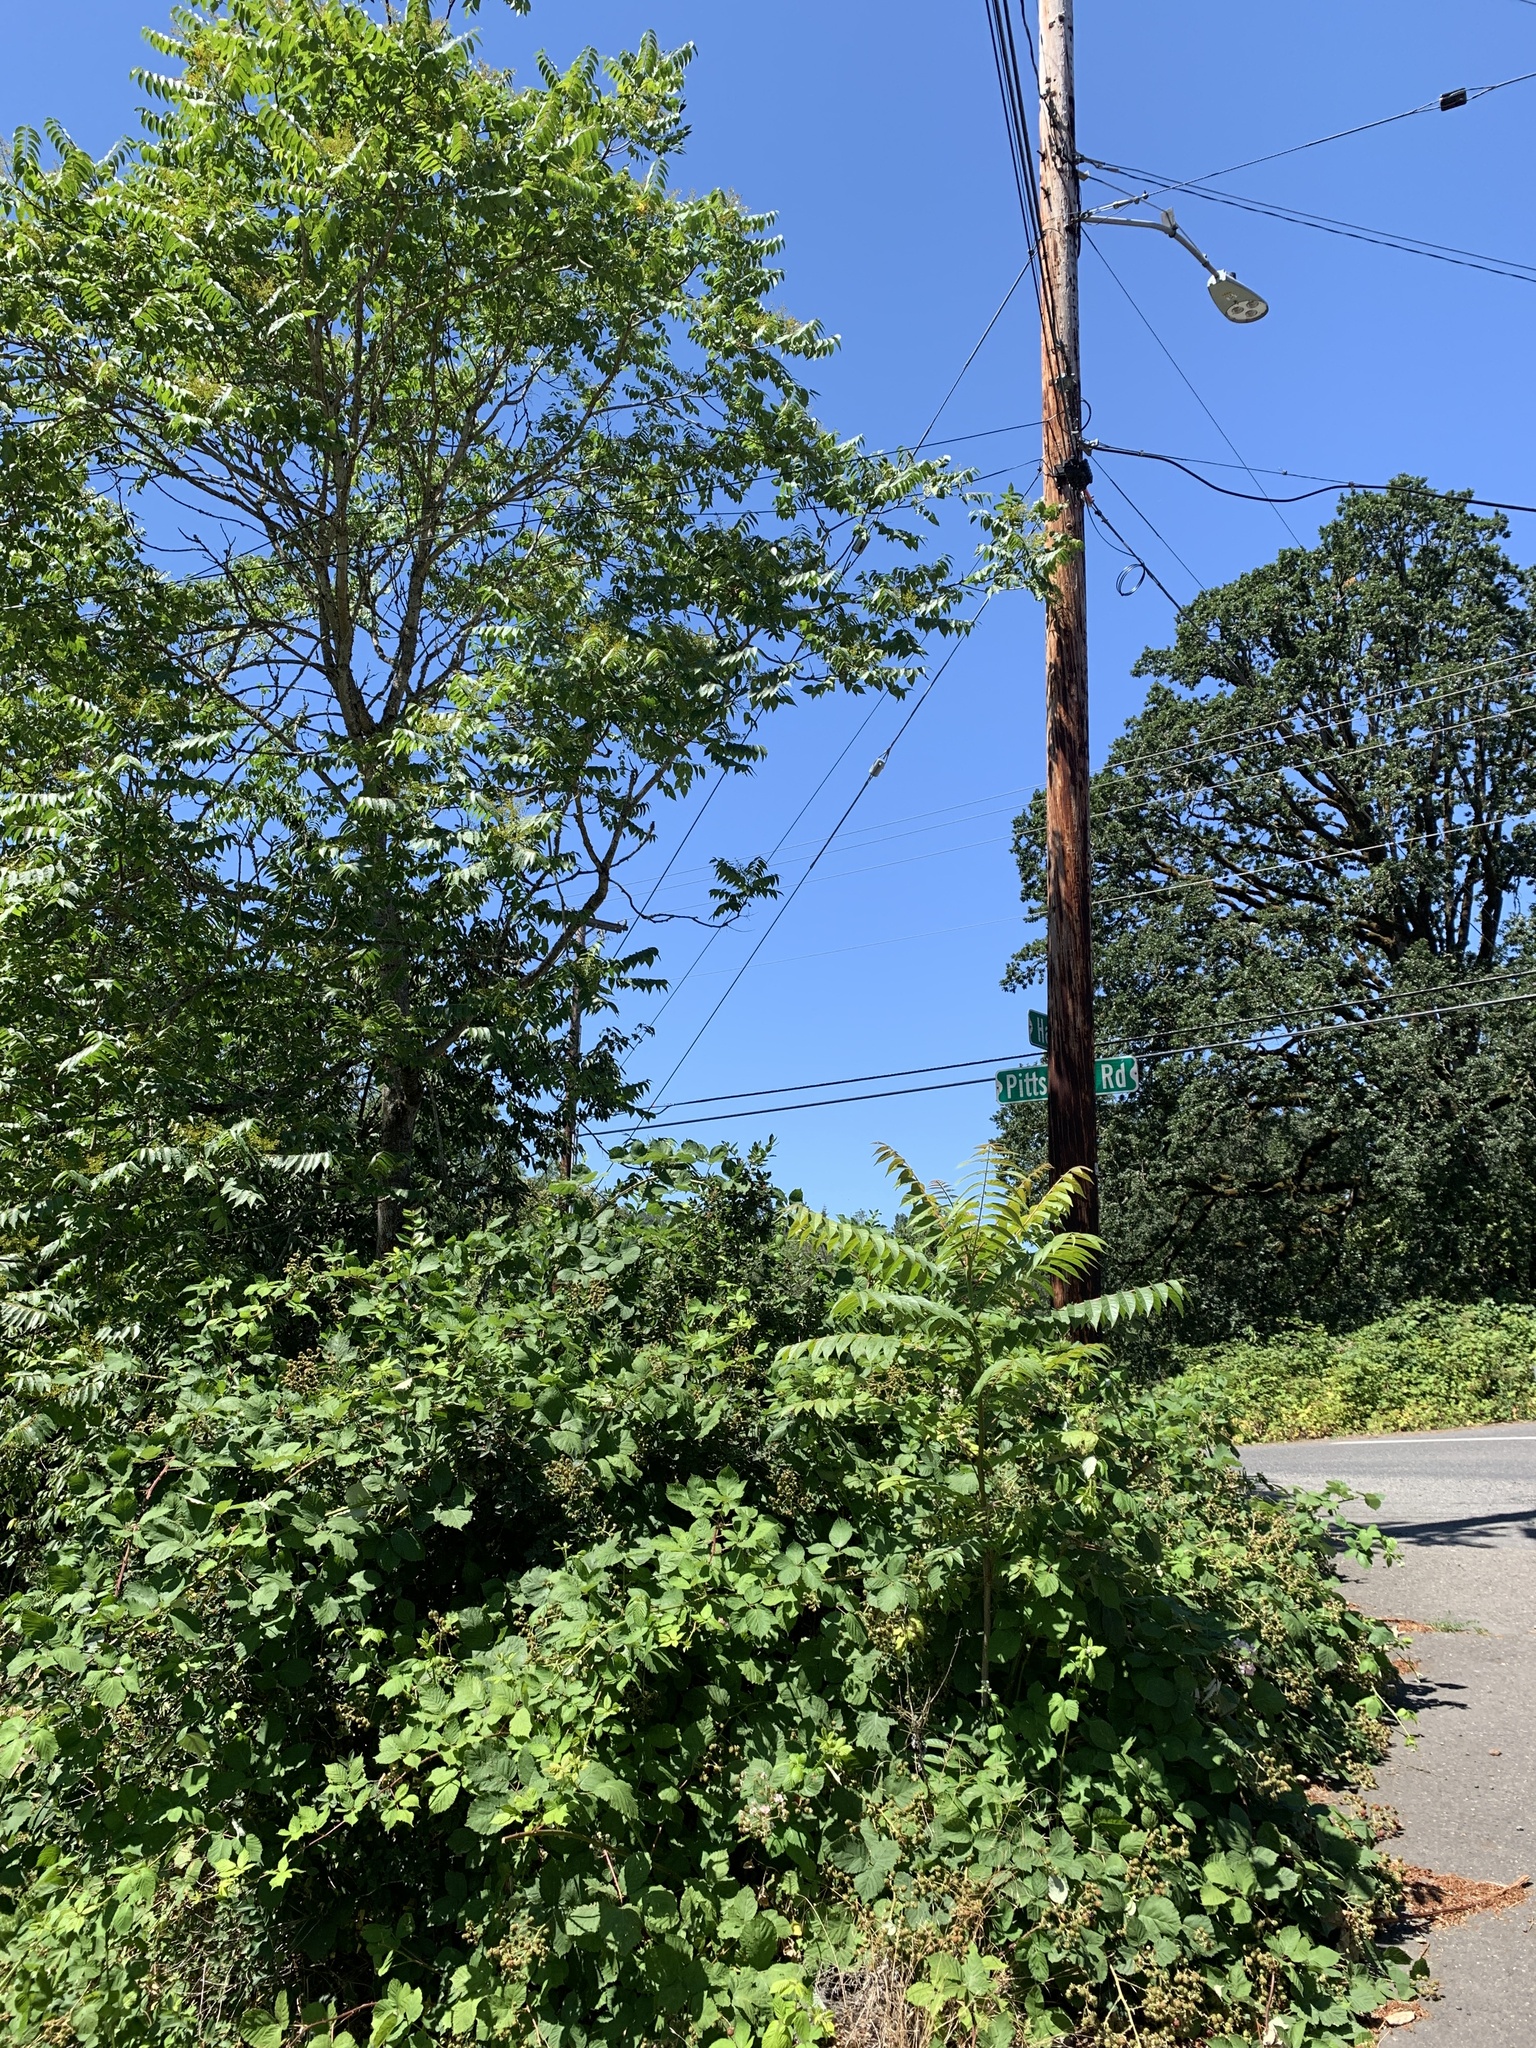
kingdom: Plantae
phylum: Tracheophyta
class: Magnoliopsida
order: Sapindales
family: Simaroubaceae
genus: Ailanthus
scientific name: Ailanthus altissima
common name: Tree-of-heaven
